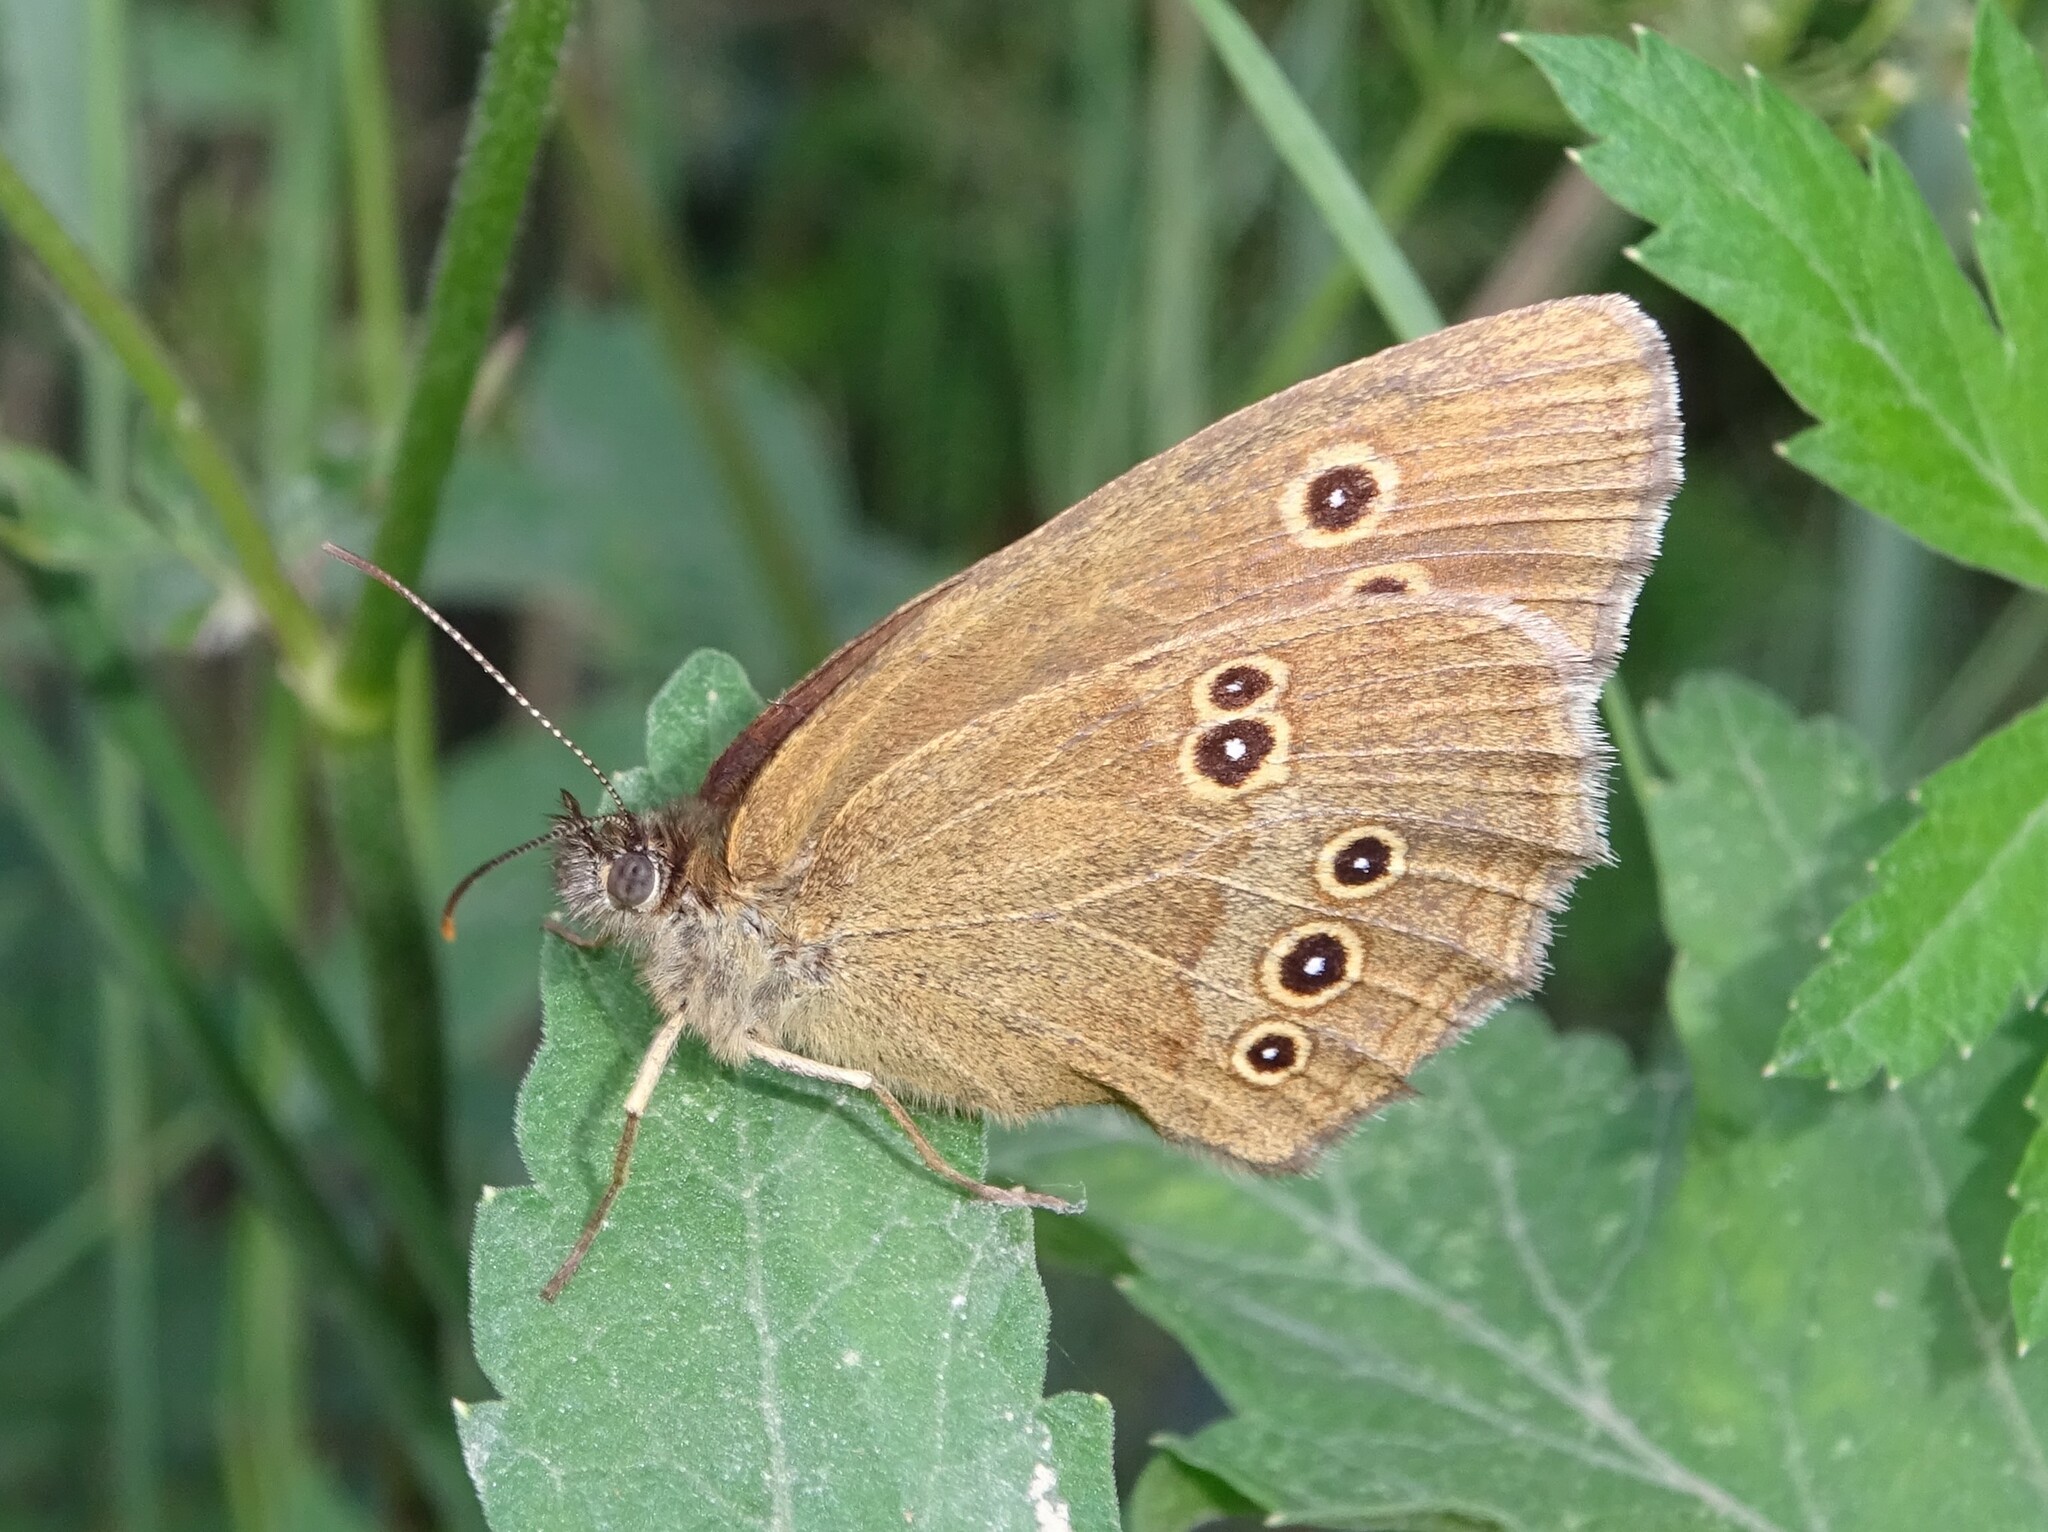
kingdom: Animalia
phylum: Arthropoda
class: Insecta
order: Lepidoptera
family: Nymphalidae
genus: Aphantopus
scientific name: Aphantopus hyperantus
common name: Ringlet
